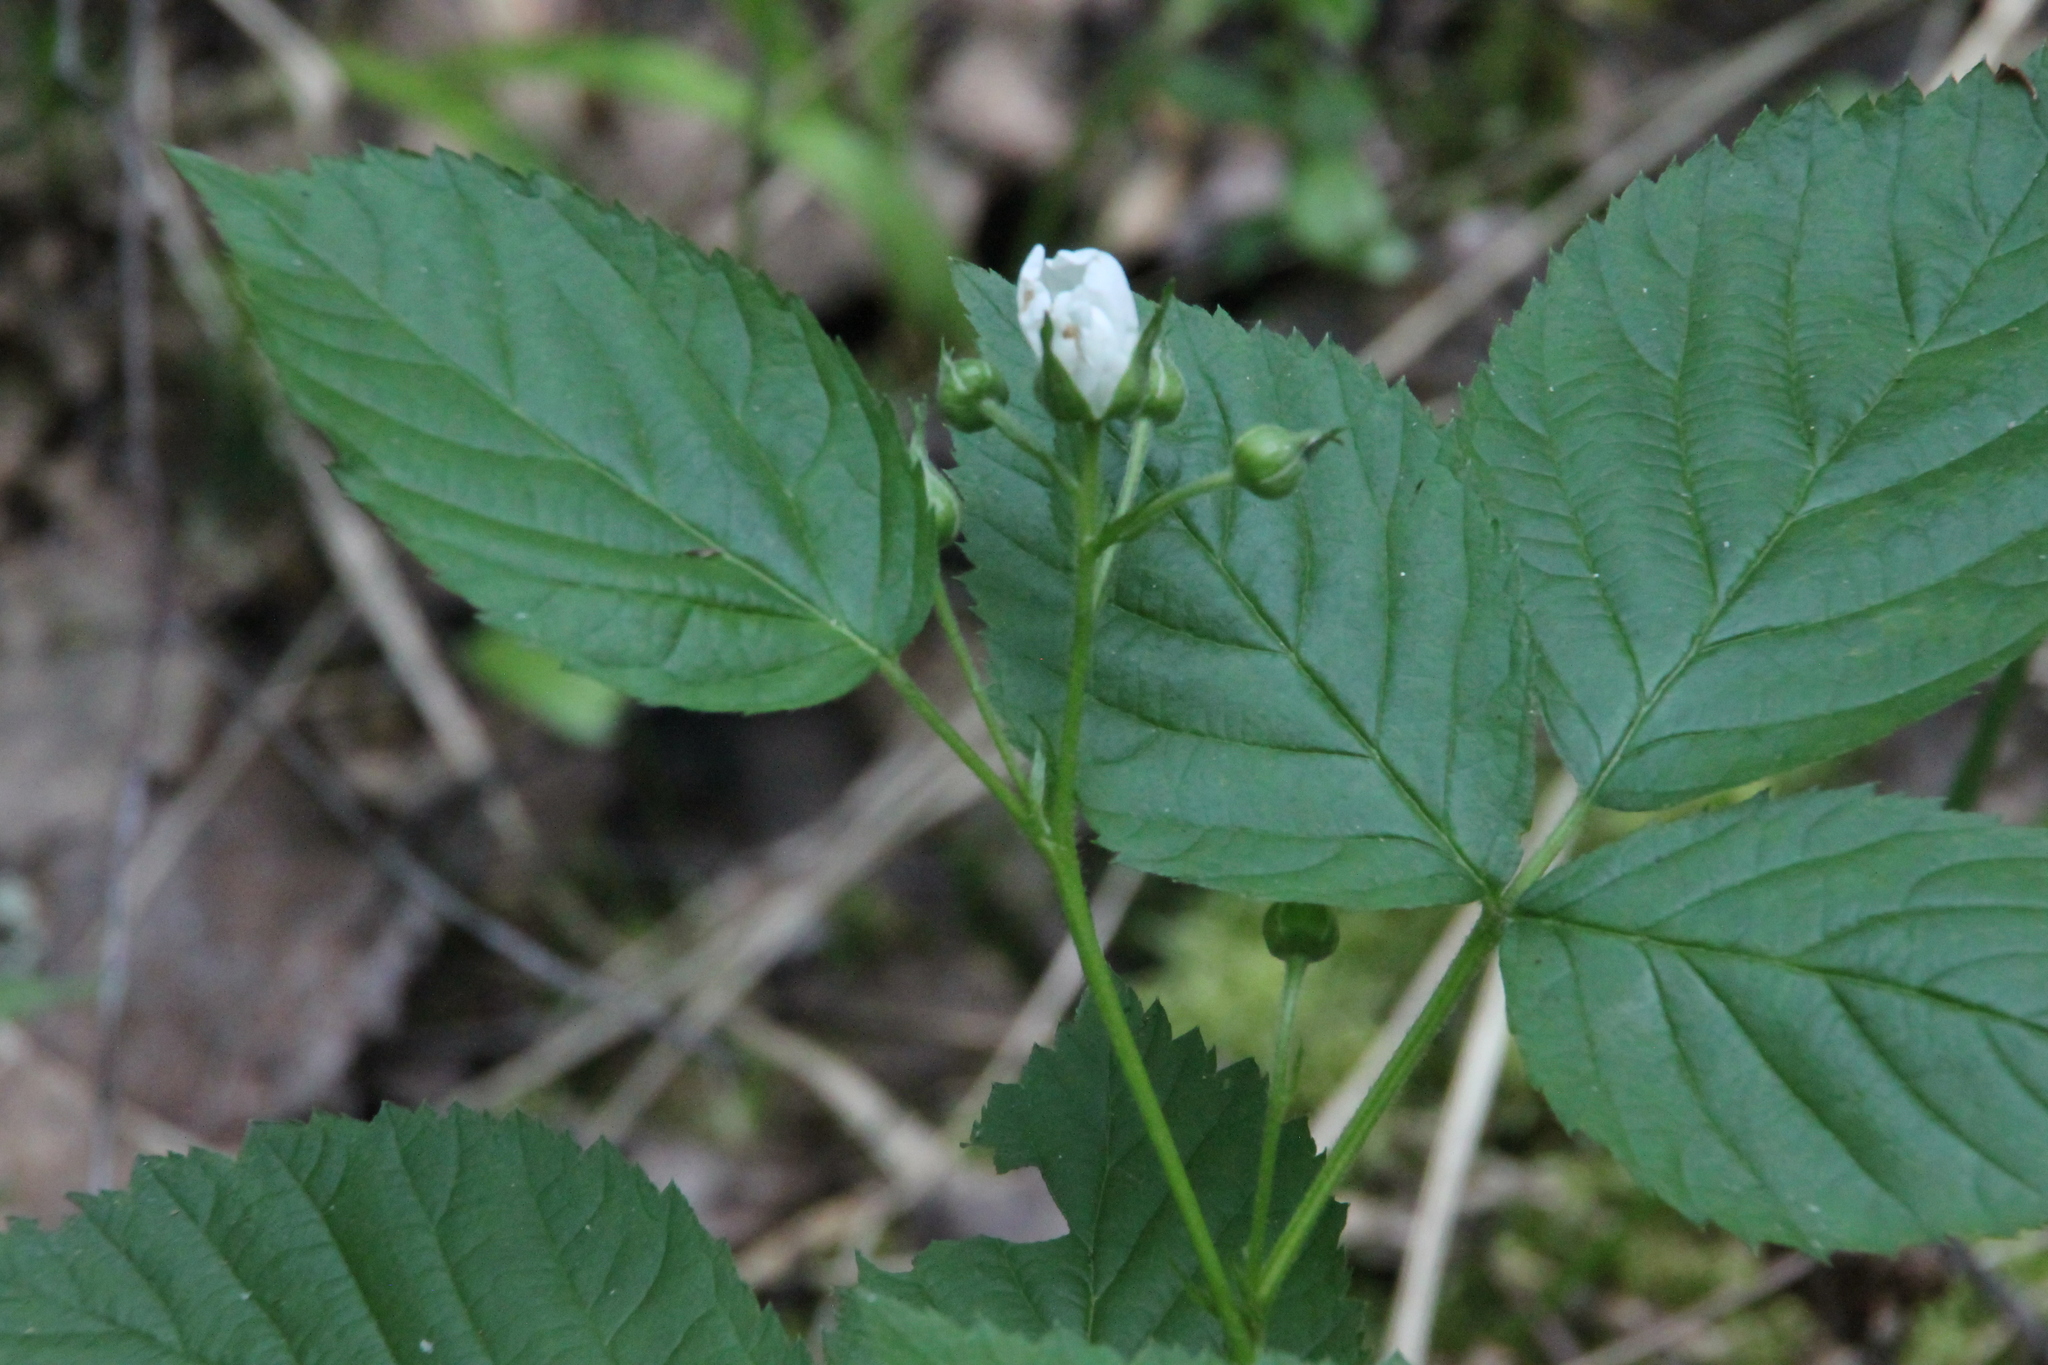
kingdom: Plantae
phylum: Tracheophyta
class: Magnoliopsida
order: Rosales
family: Rosaceae
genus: Rubus
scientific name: Rubus polonicus
